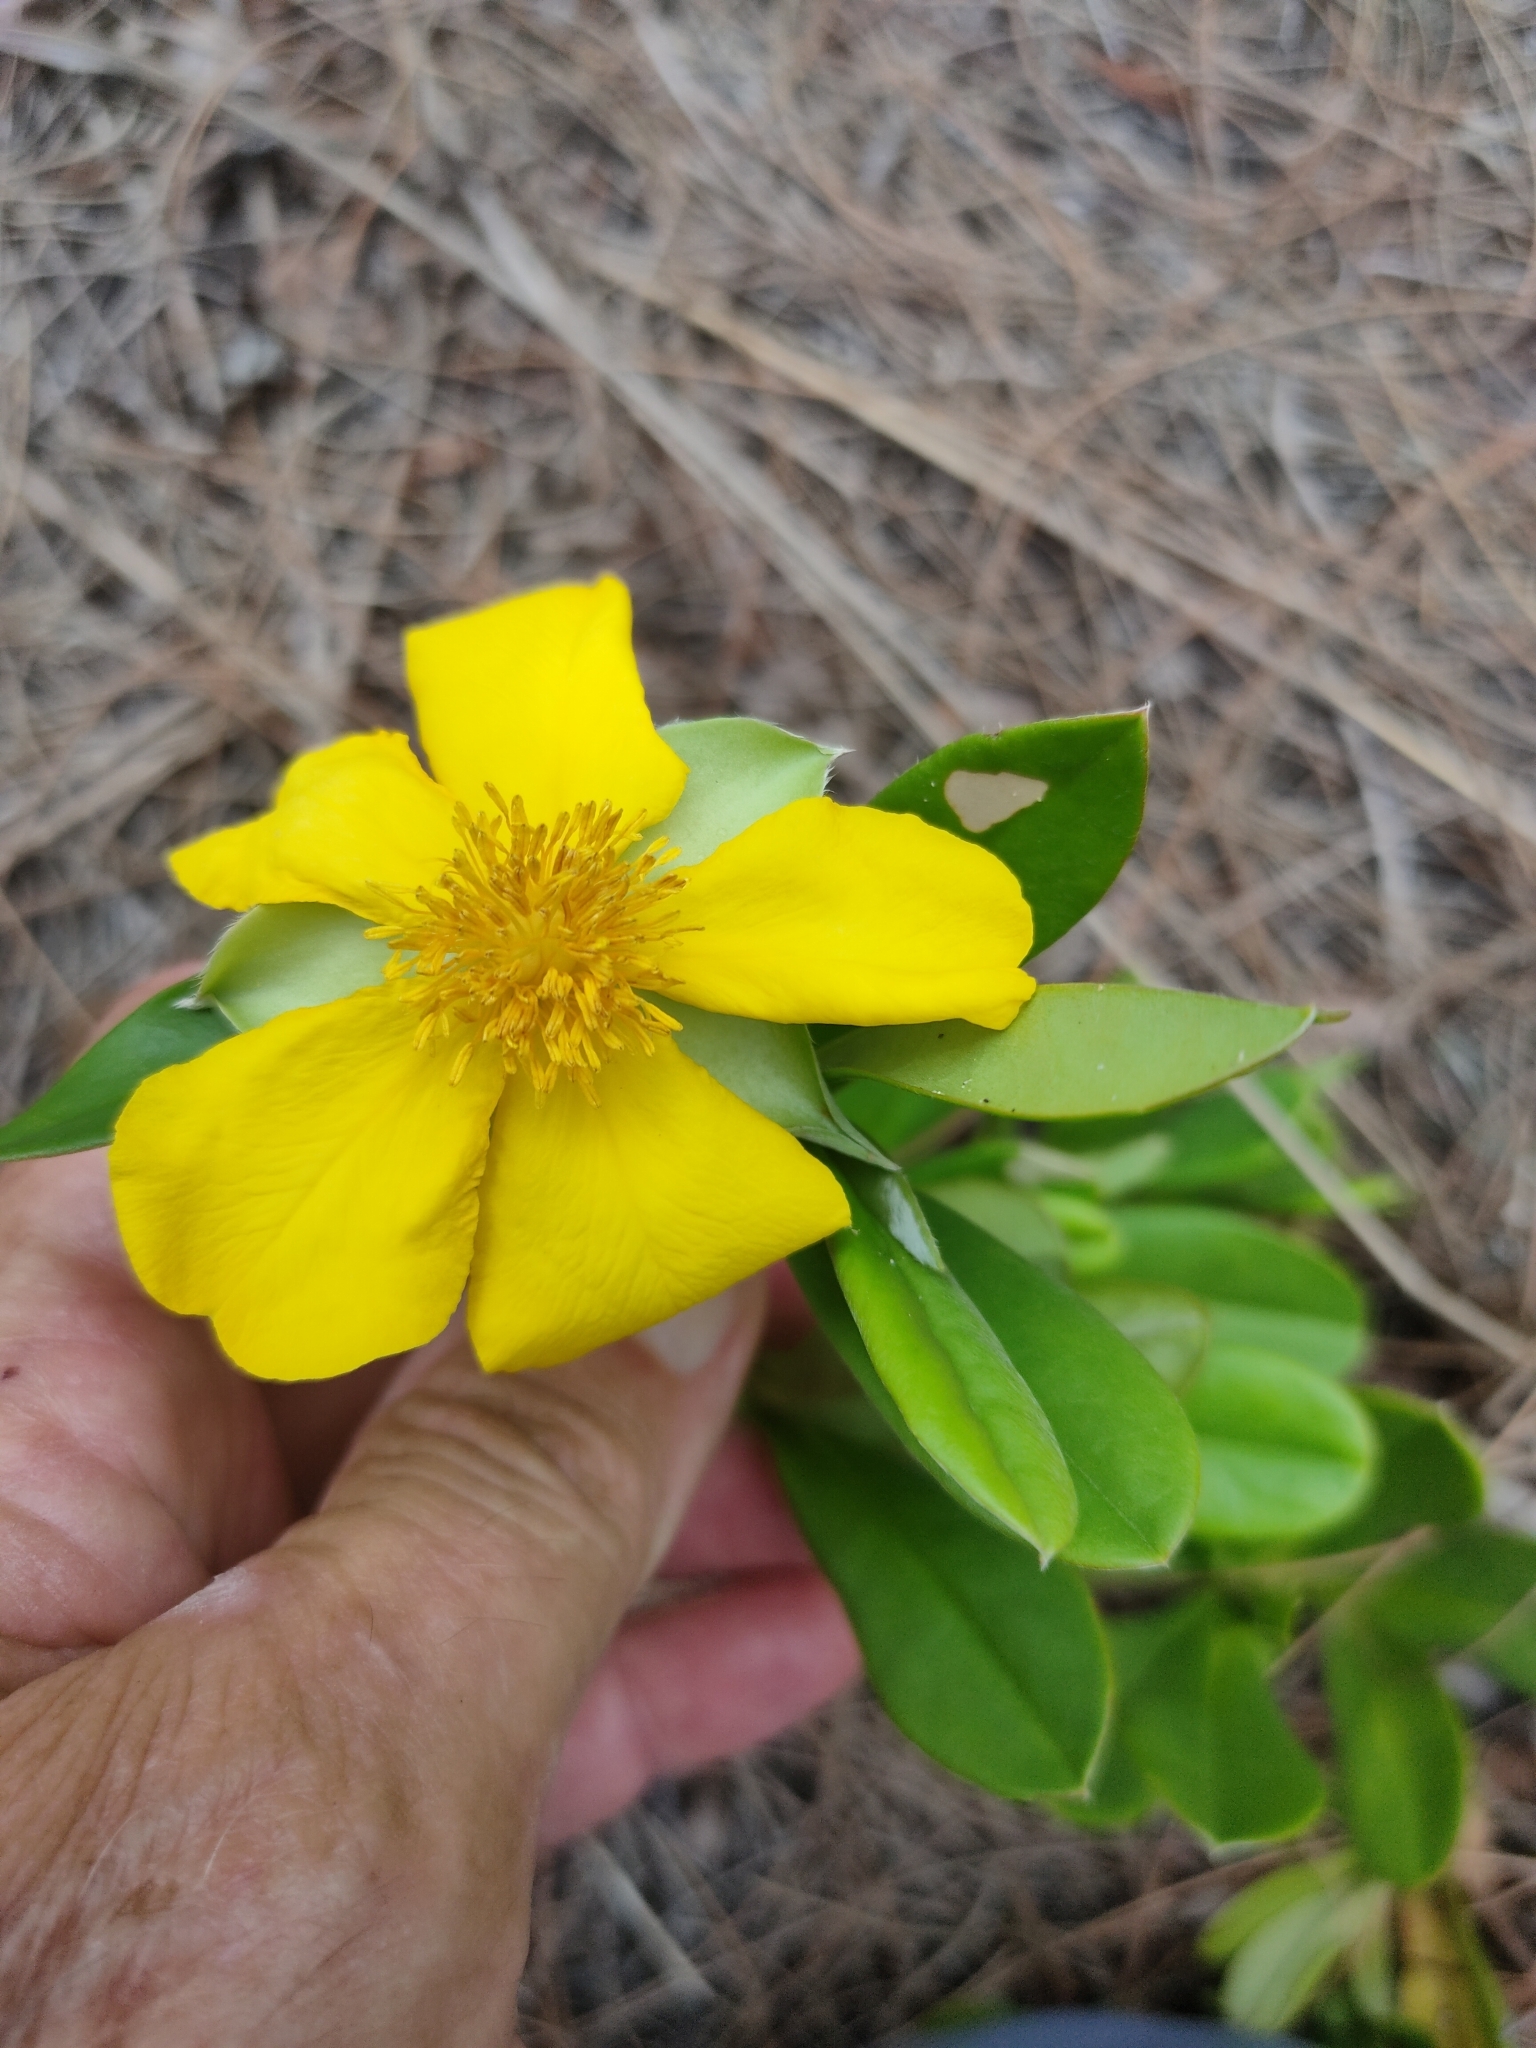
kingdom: Plantae
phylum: Tracheophyta
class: Magnoliopsida
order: Dilleniales
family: Dilleniaceae
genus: Hibbertia
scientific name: Hibbertia scandens
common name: Climbing guinea-flower
